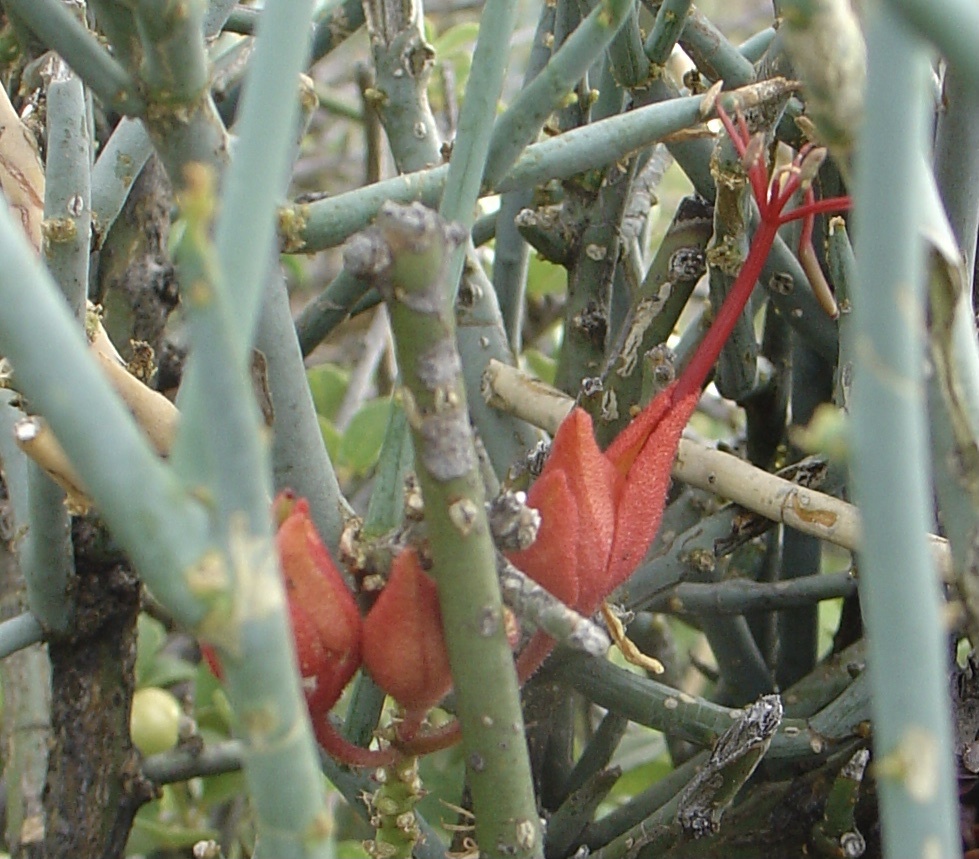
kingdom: Plantae
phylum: Tracheophyta
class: Magnoliopsida
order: Brassicales
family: Capparaceae
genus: Cadaba
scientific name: Cadaba aphylla
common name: Black storm
